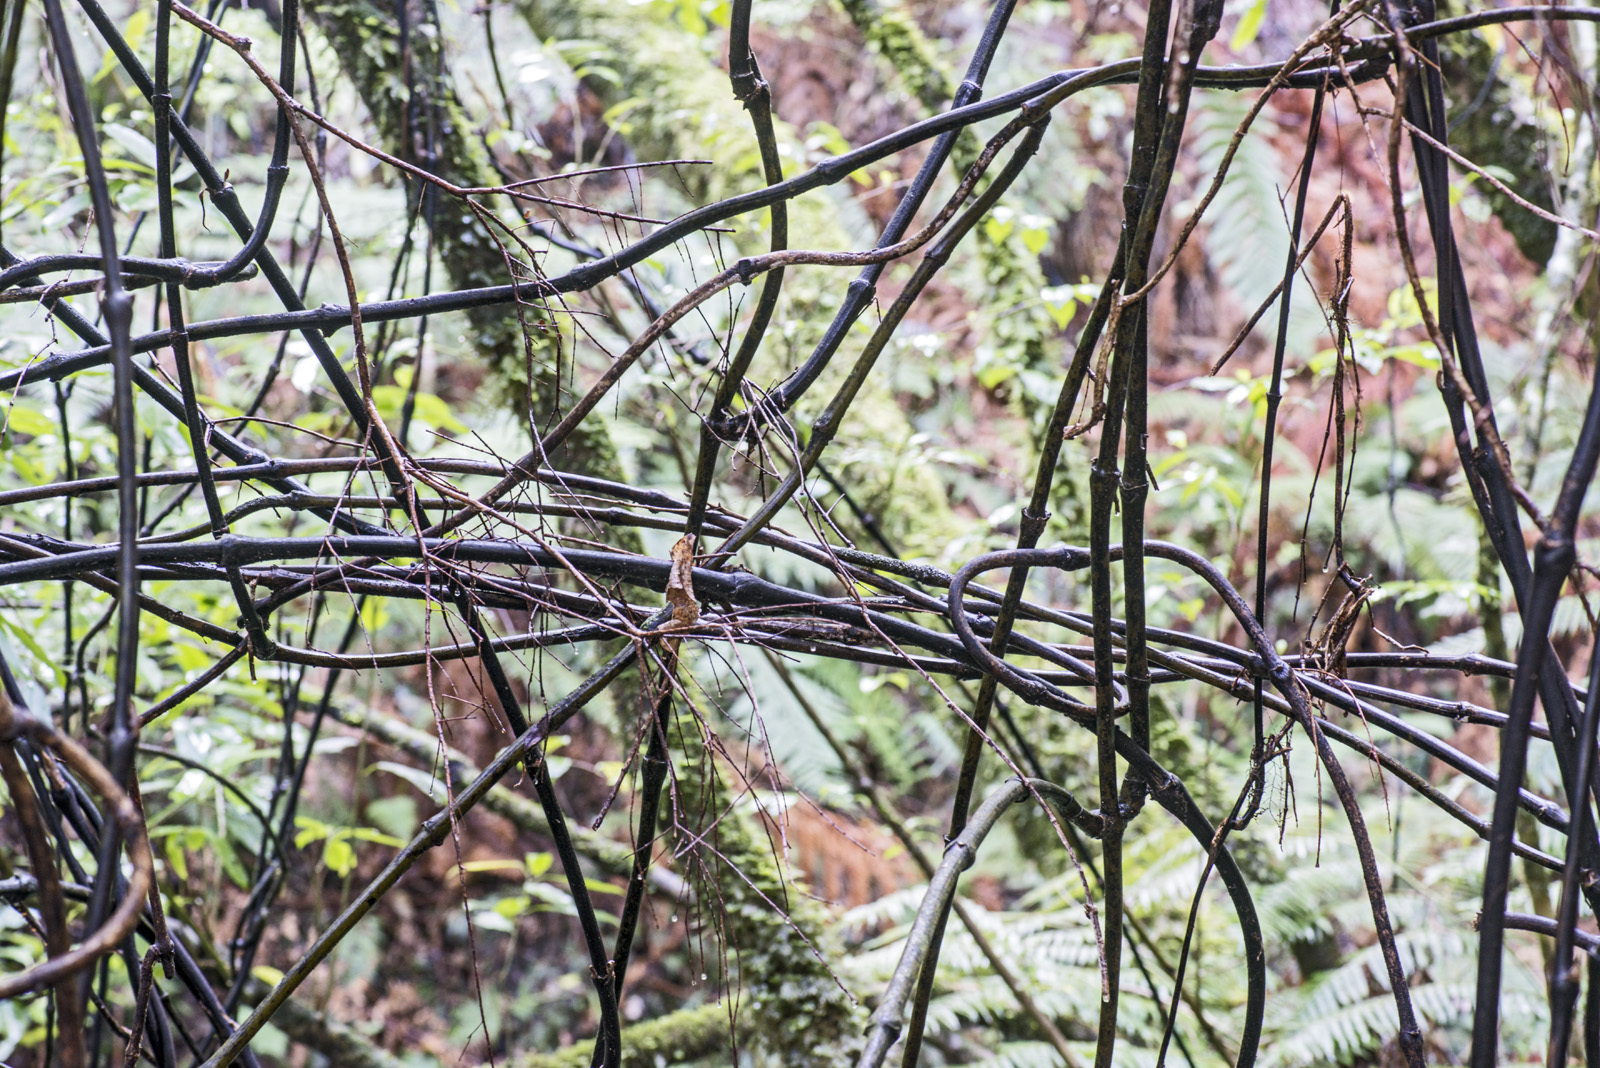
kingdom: Plantae
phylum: Tracheophyta
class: Liliopsida
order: Liliales
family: Ripogonaceae
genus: Ripogonum
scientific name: Ripogonum scandens
